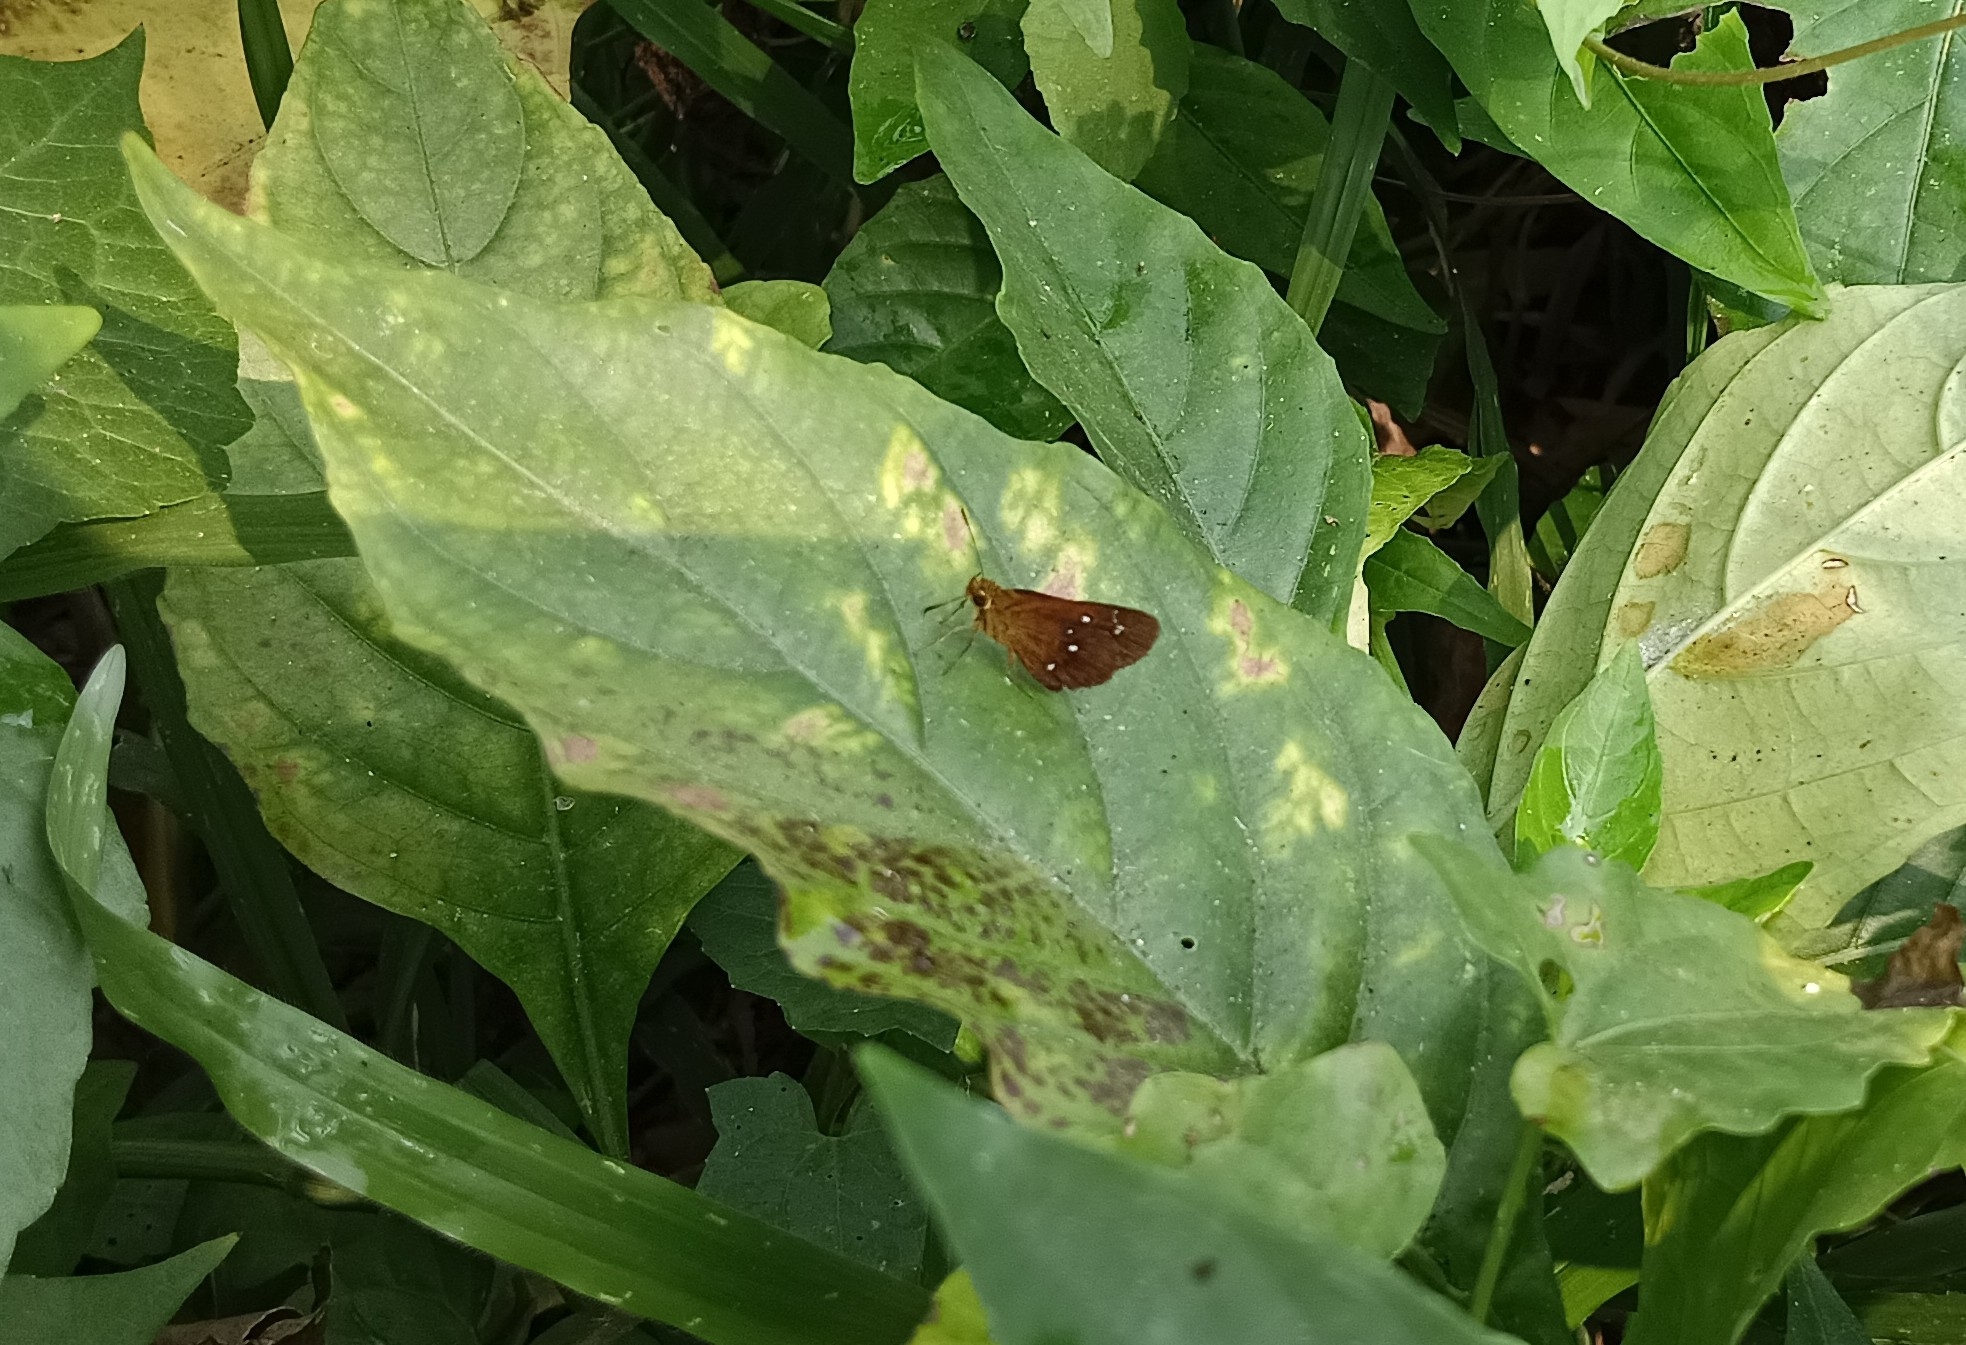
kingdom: Animalia
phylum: Arthropoda
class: Insecta
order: Lepidoptera
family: Hesperiidae
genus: Iambrix
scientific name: Iambrix salsala
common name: Chestnut bob
